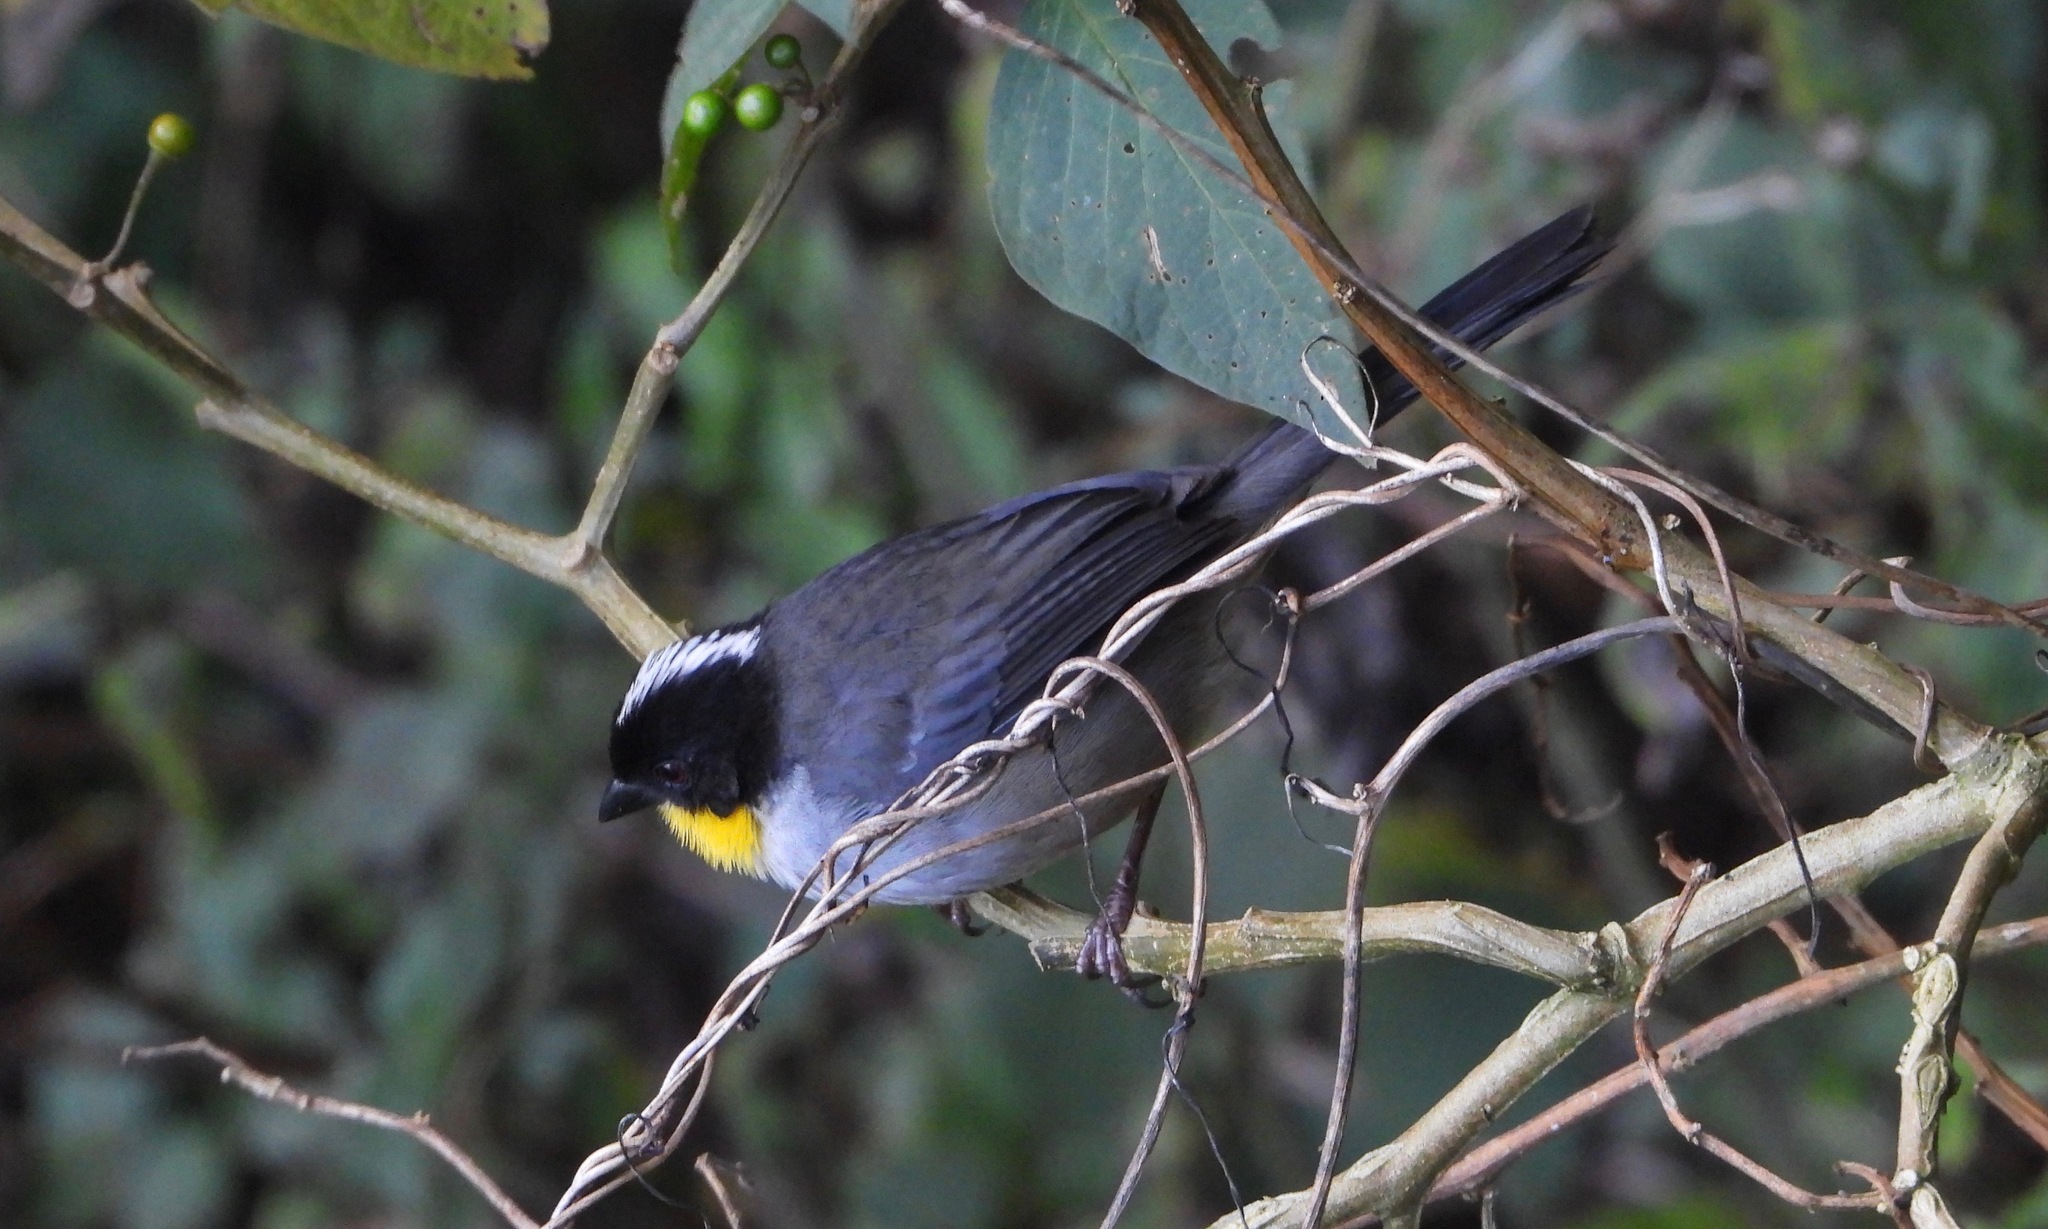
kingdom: Animalia
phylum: Chordata
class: Aves
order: Passeriformes
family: Passerellidae
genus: Atlapetes
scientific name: Atlapetes albinucha
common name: White-naped brush-finch
